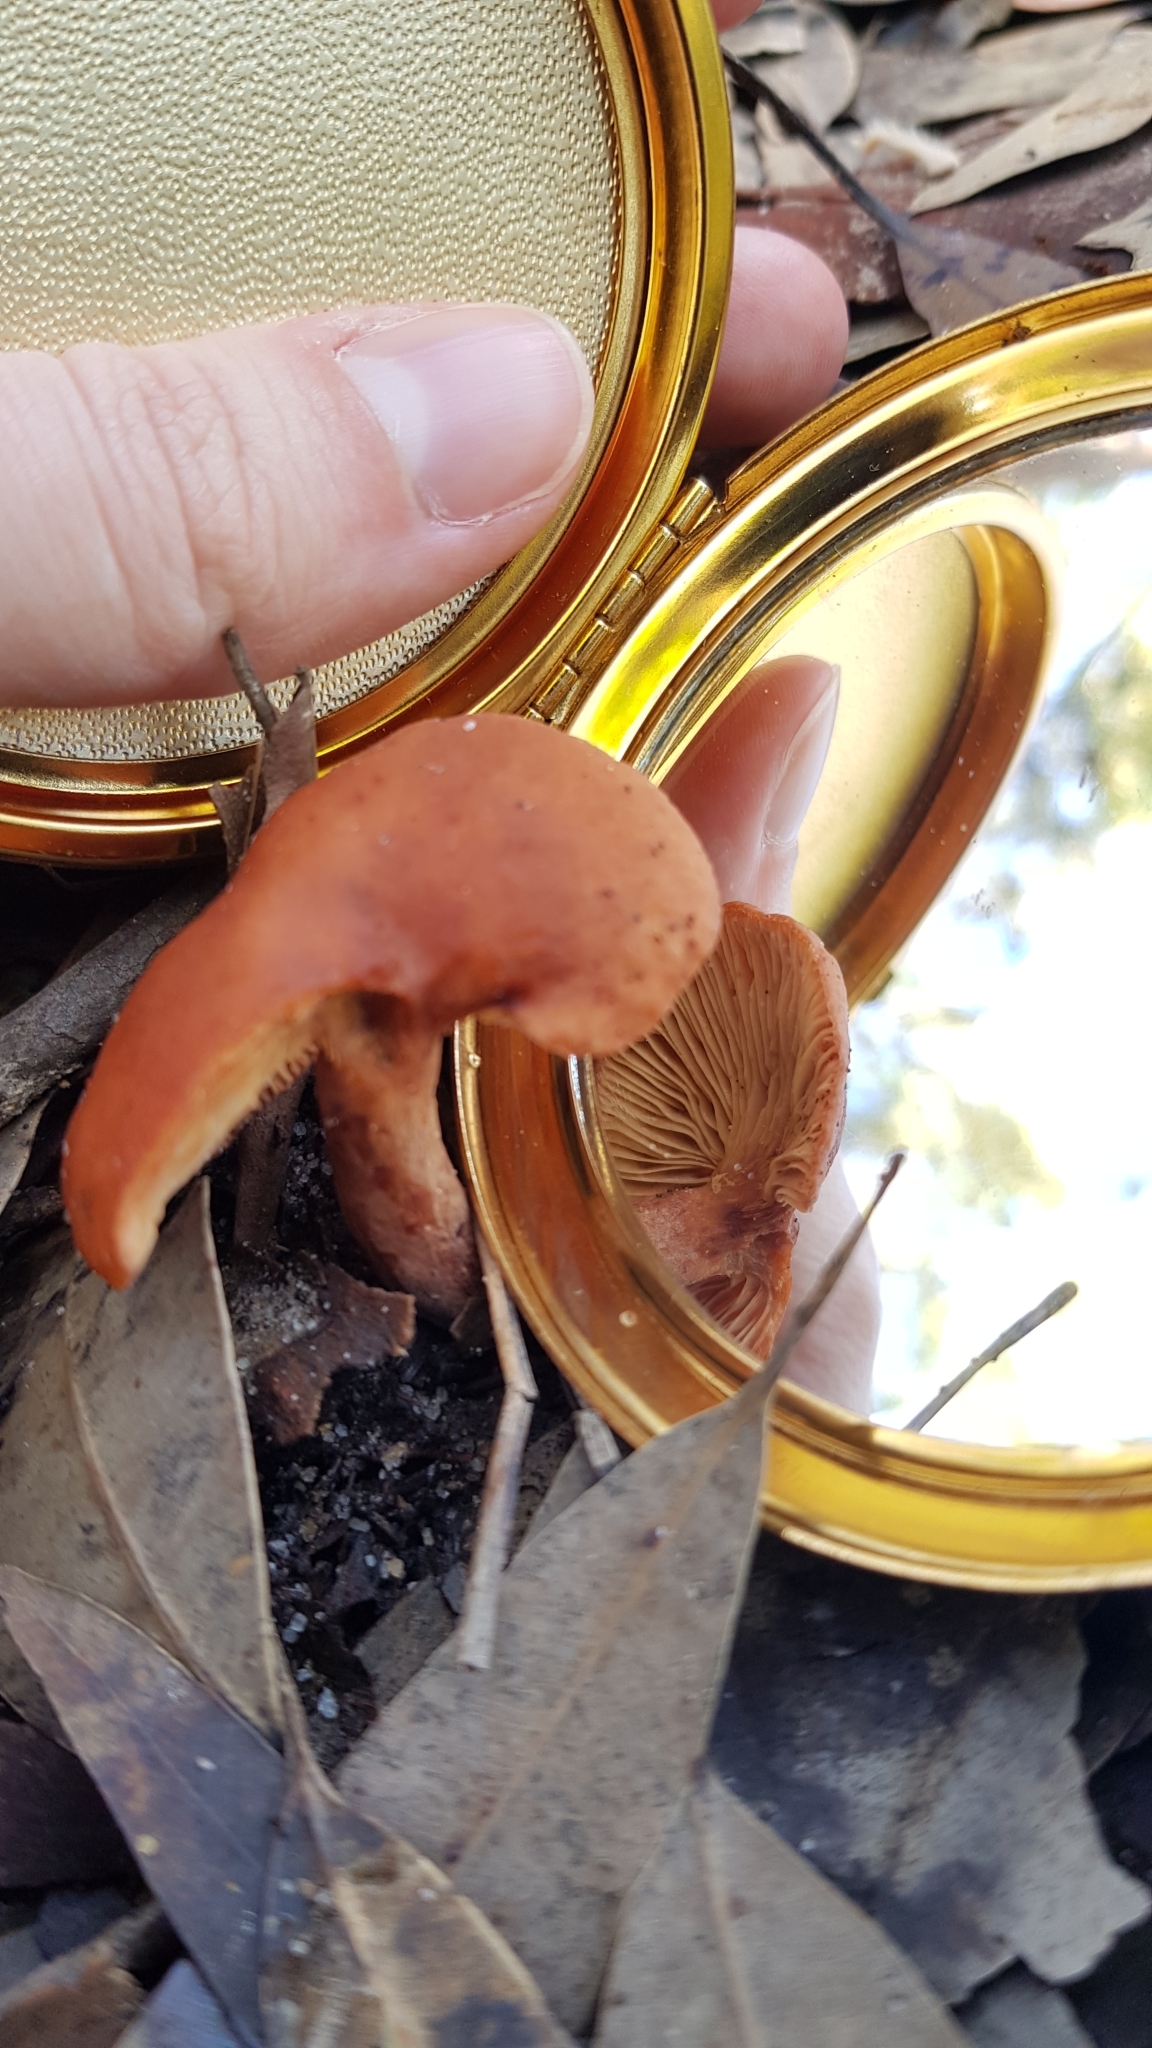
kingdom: Fungi
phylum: Basidiomycota
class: Agaricomycetes
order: Russulales
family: Russulaceae
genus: Lactarius
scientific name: Lactarius eucalypti
